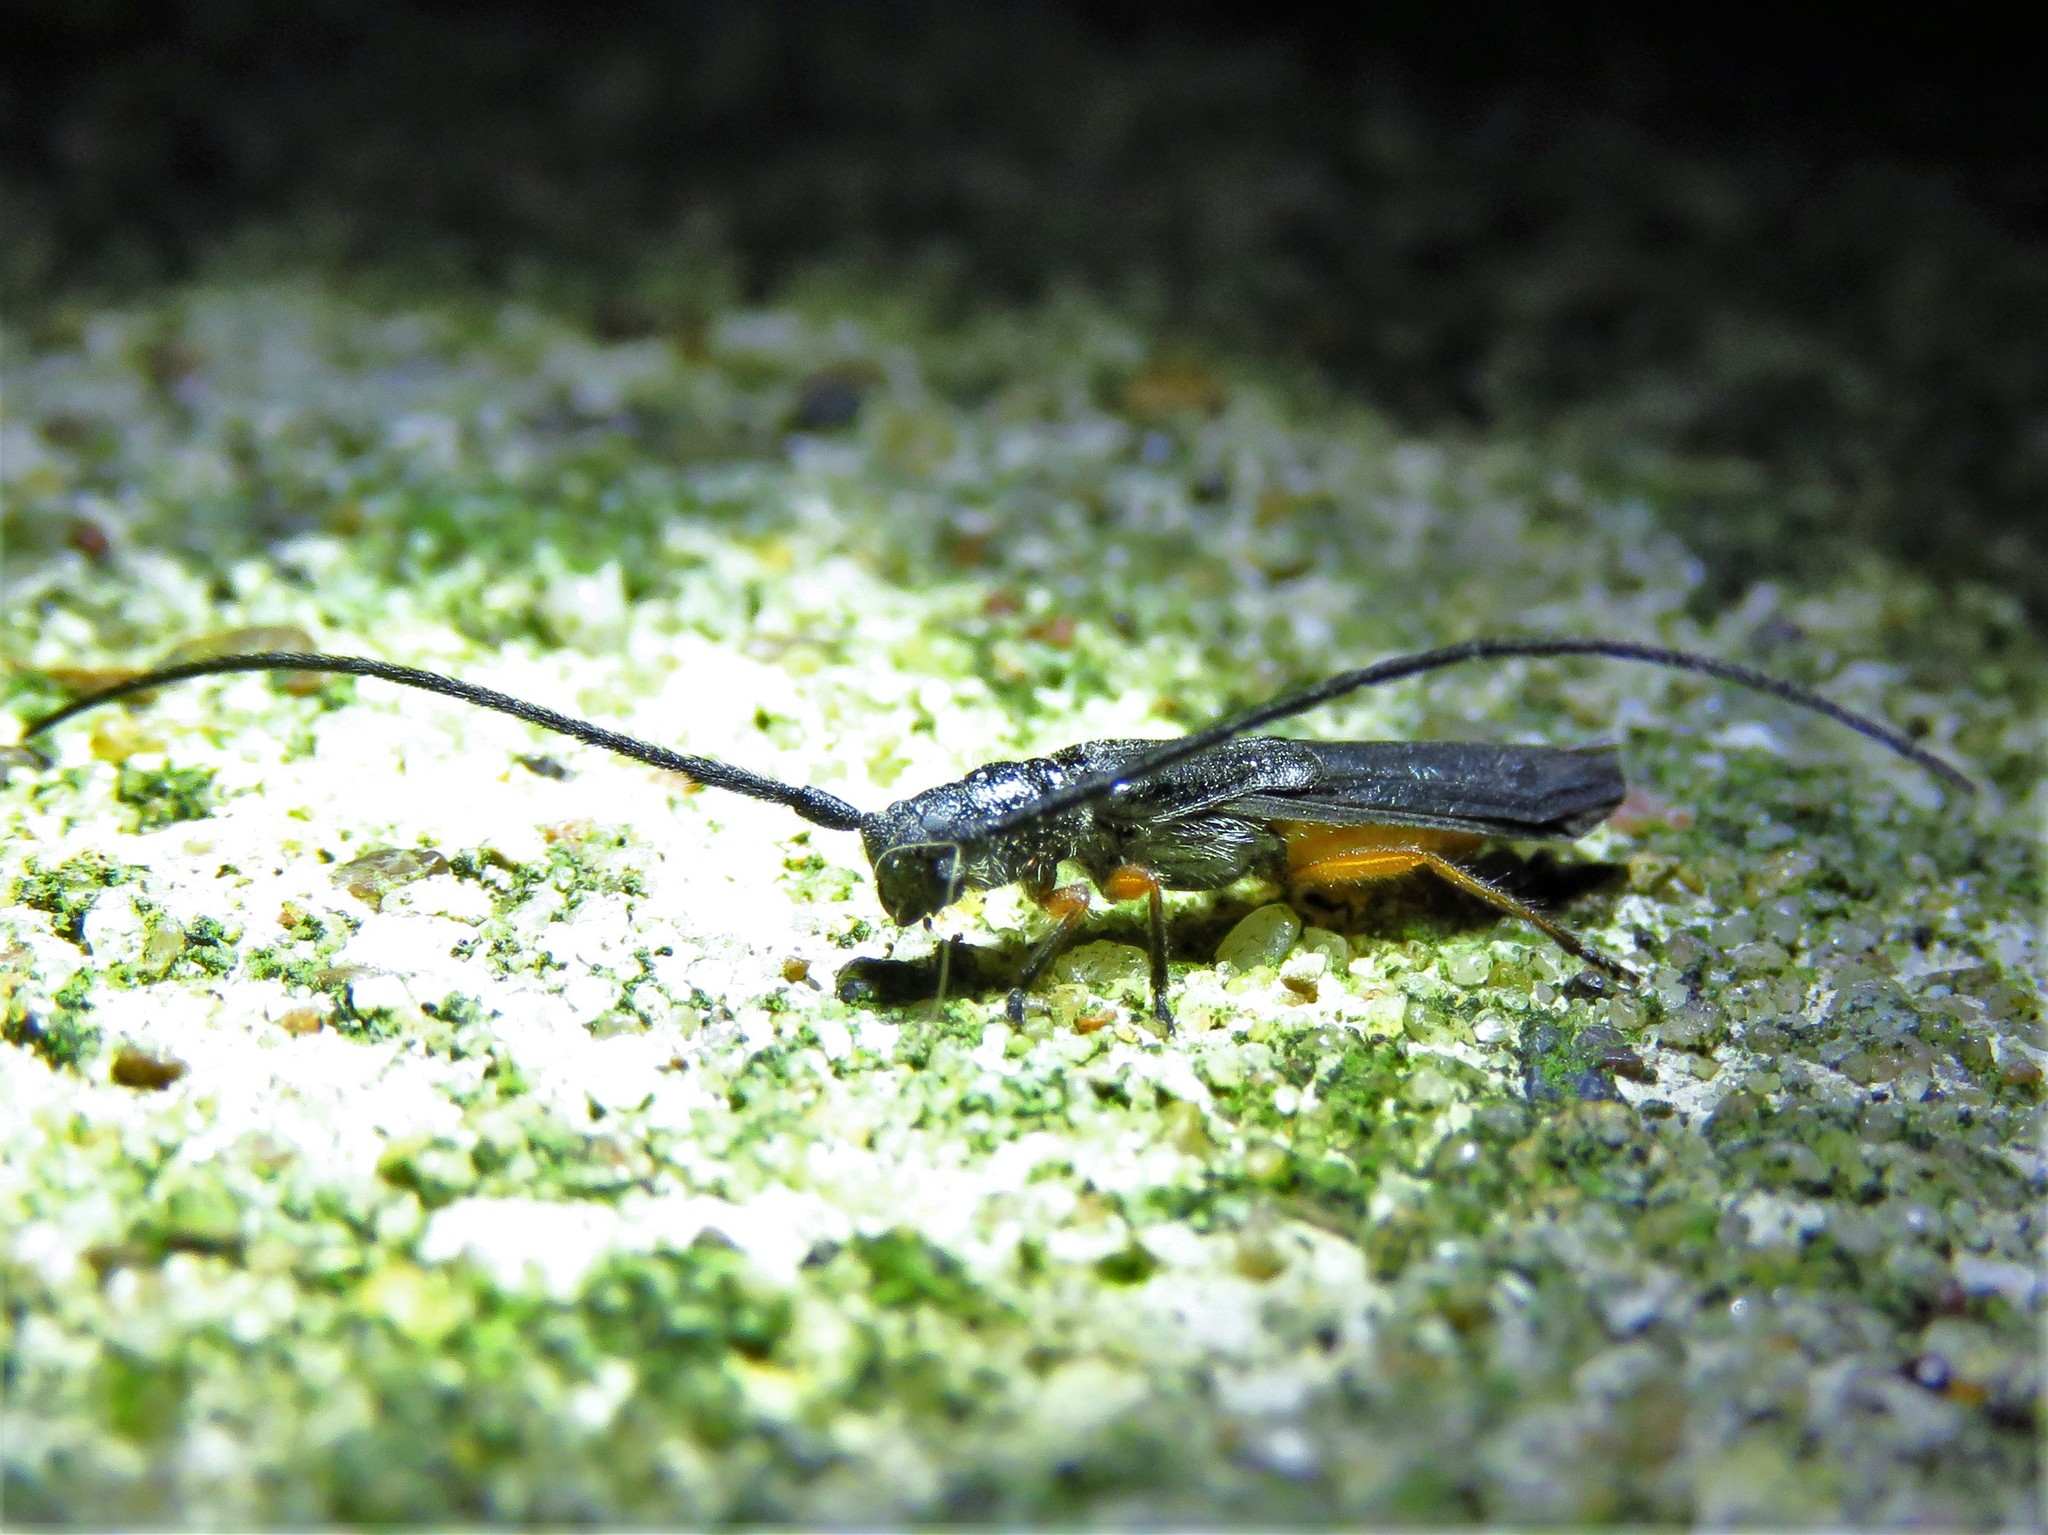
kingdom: Animalia
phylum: Arthropoda
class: Insecta
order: Coleoptera
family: Cerambycidae
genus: Methia
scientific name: Methia
